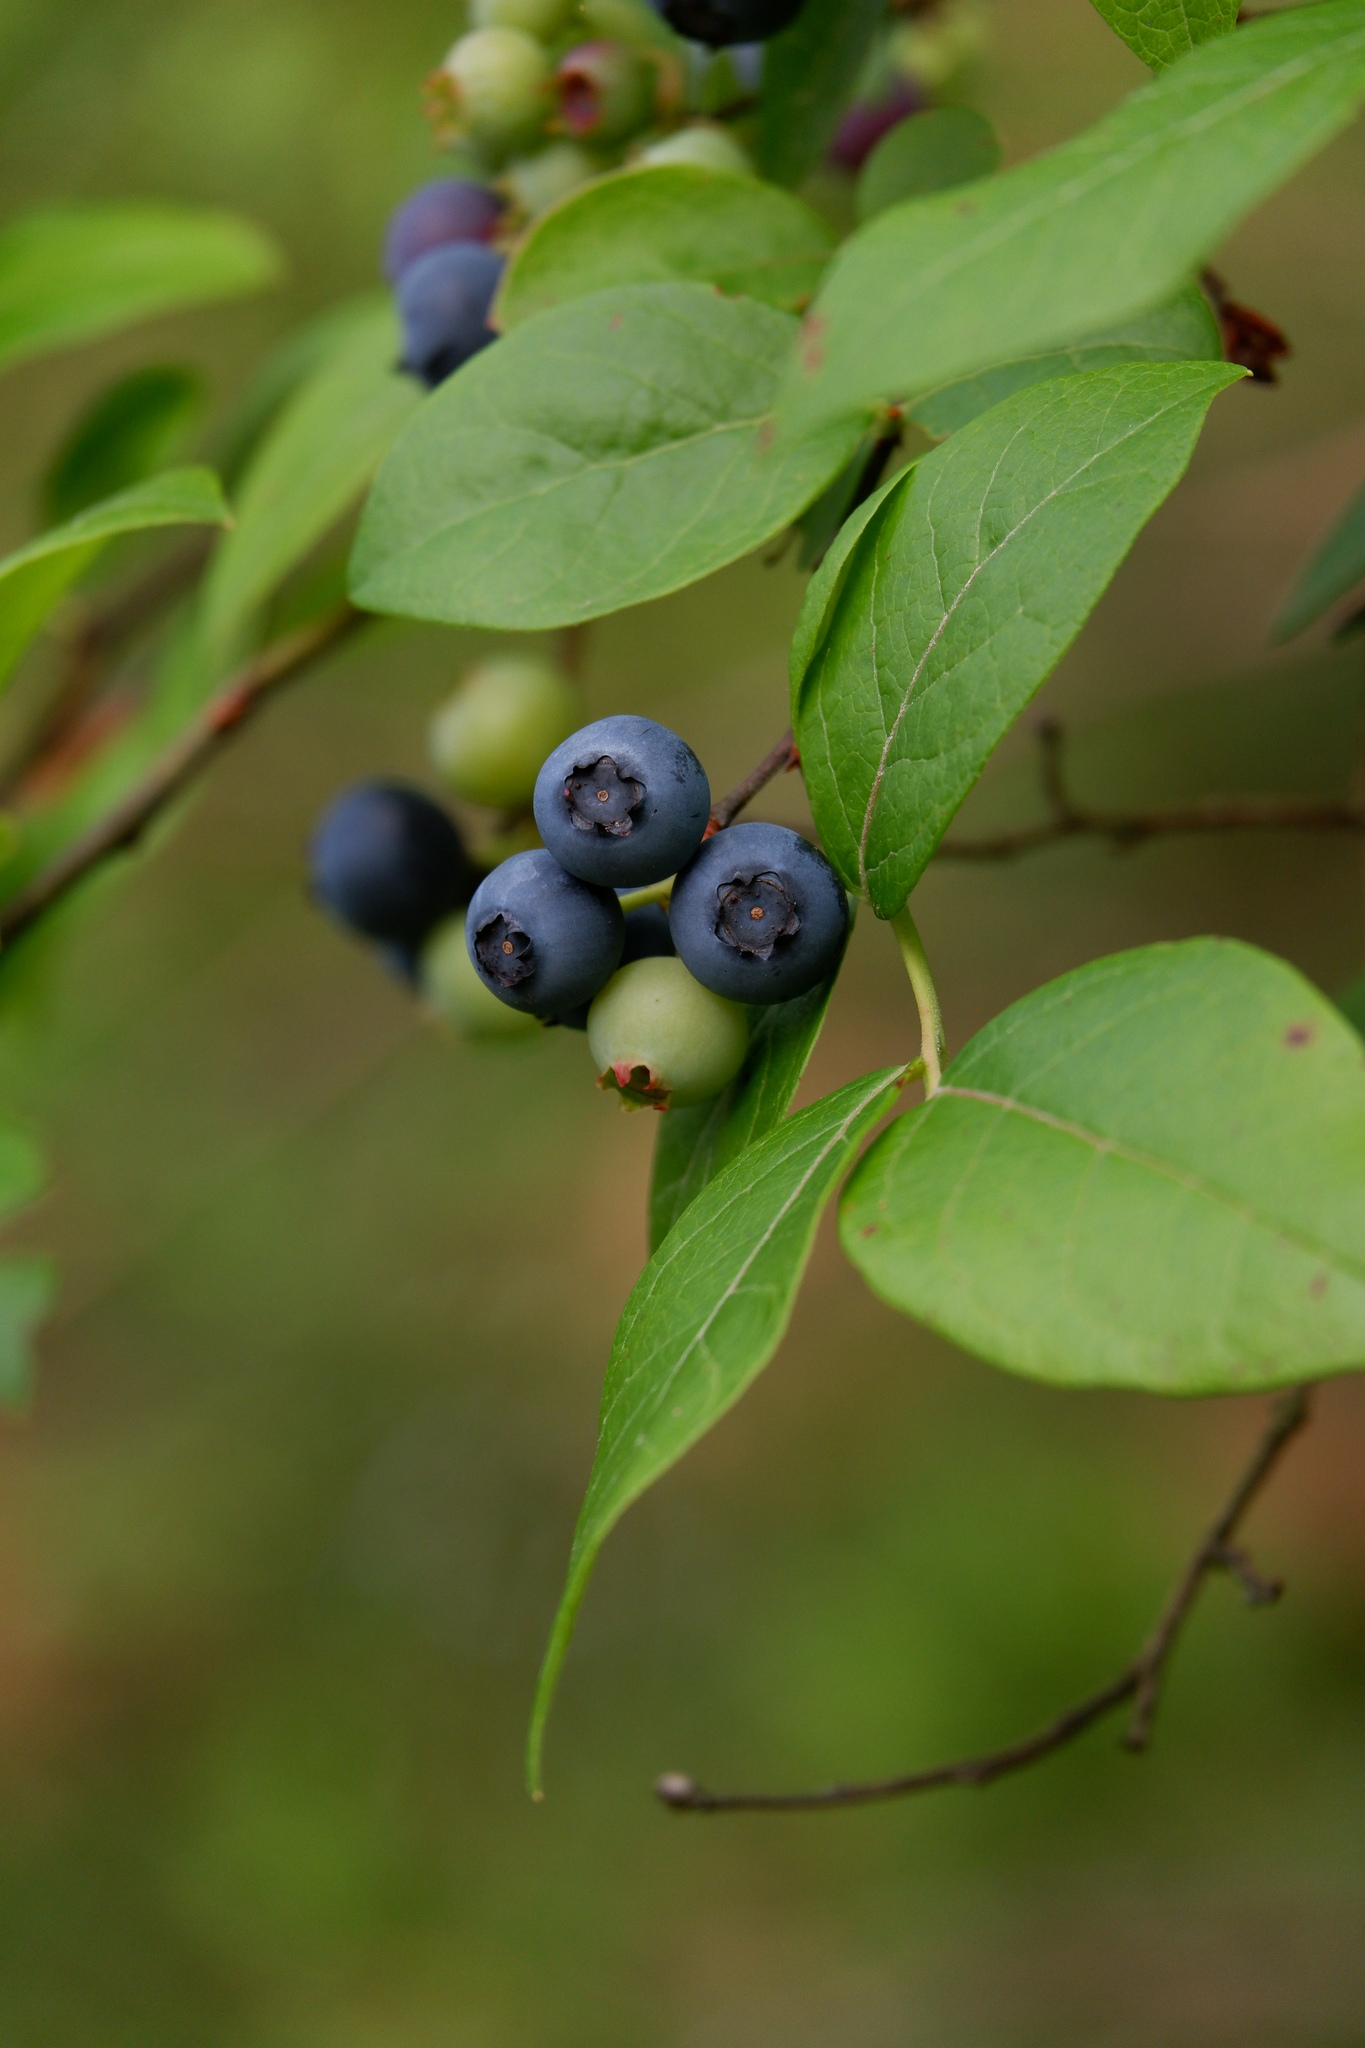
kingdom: Plantae
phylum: Tracheophyta
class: Magnoliopsida
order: Ericales
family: Ericaceae
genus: Vaccinium
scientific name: Vaccinium corymbosum
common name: Blueberry
